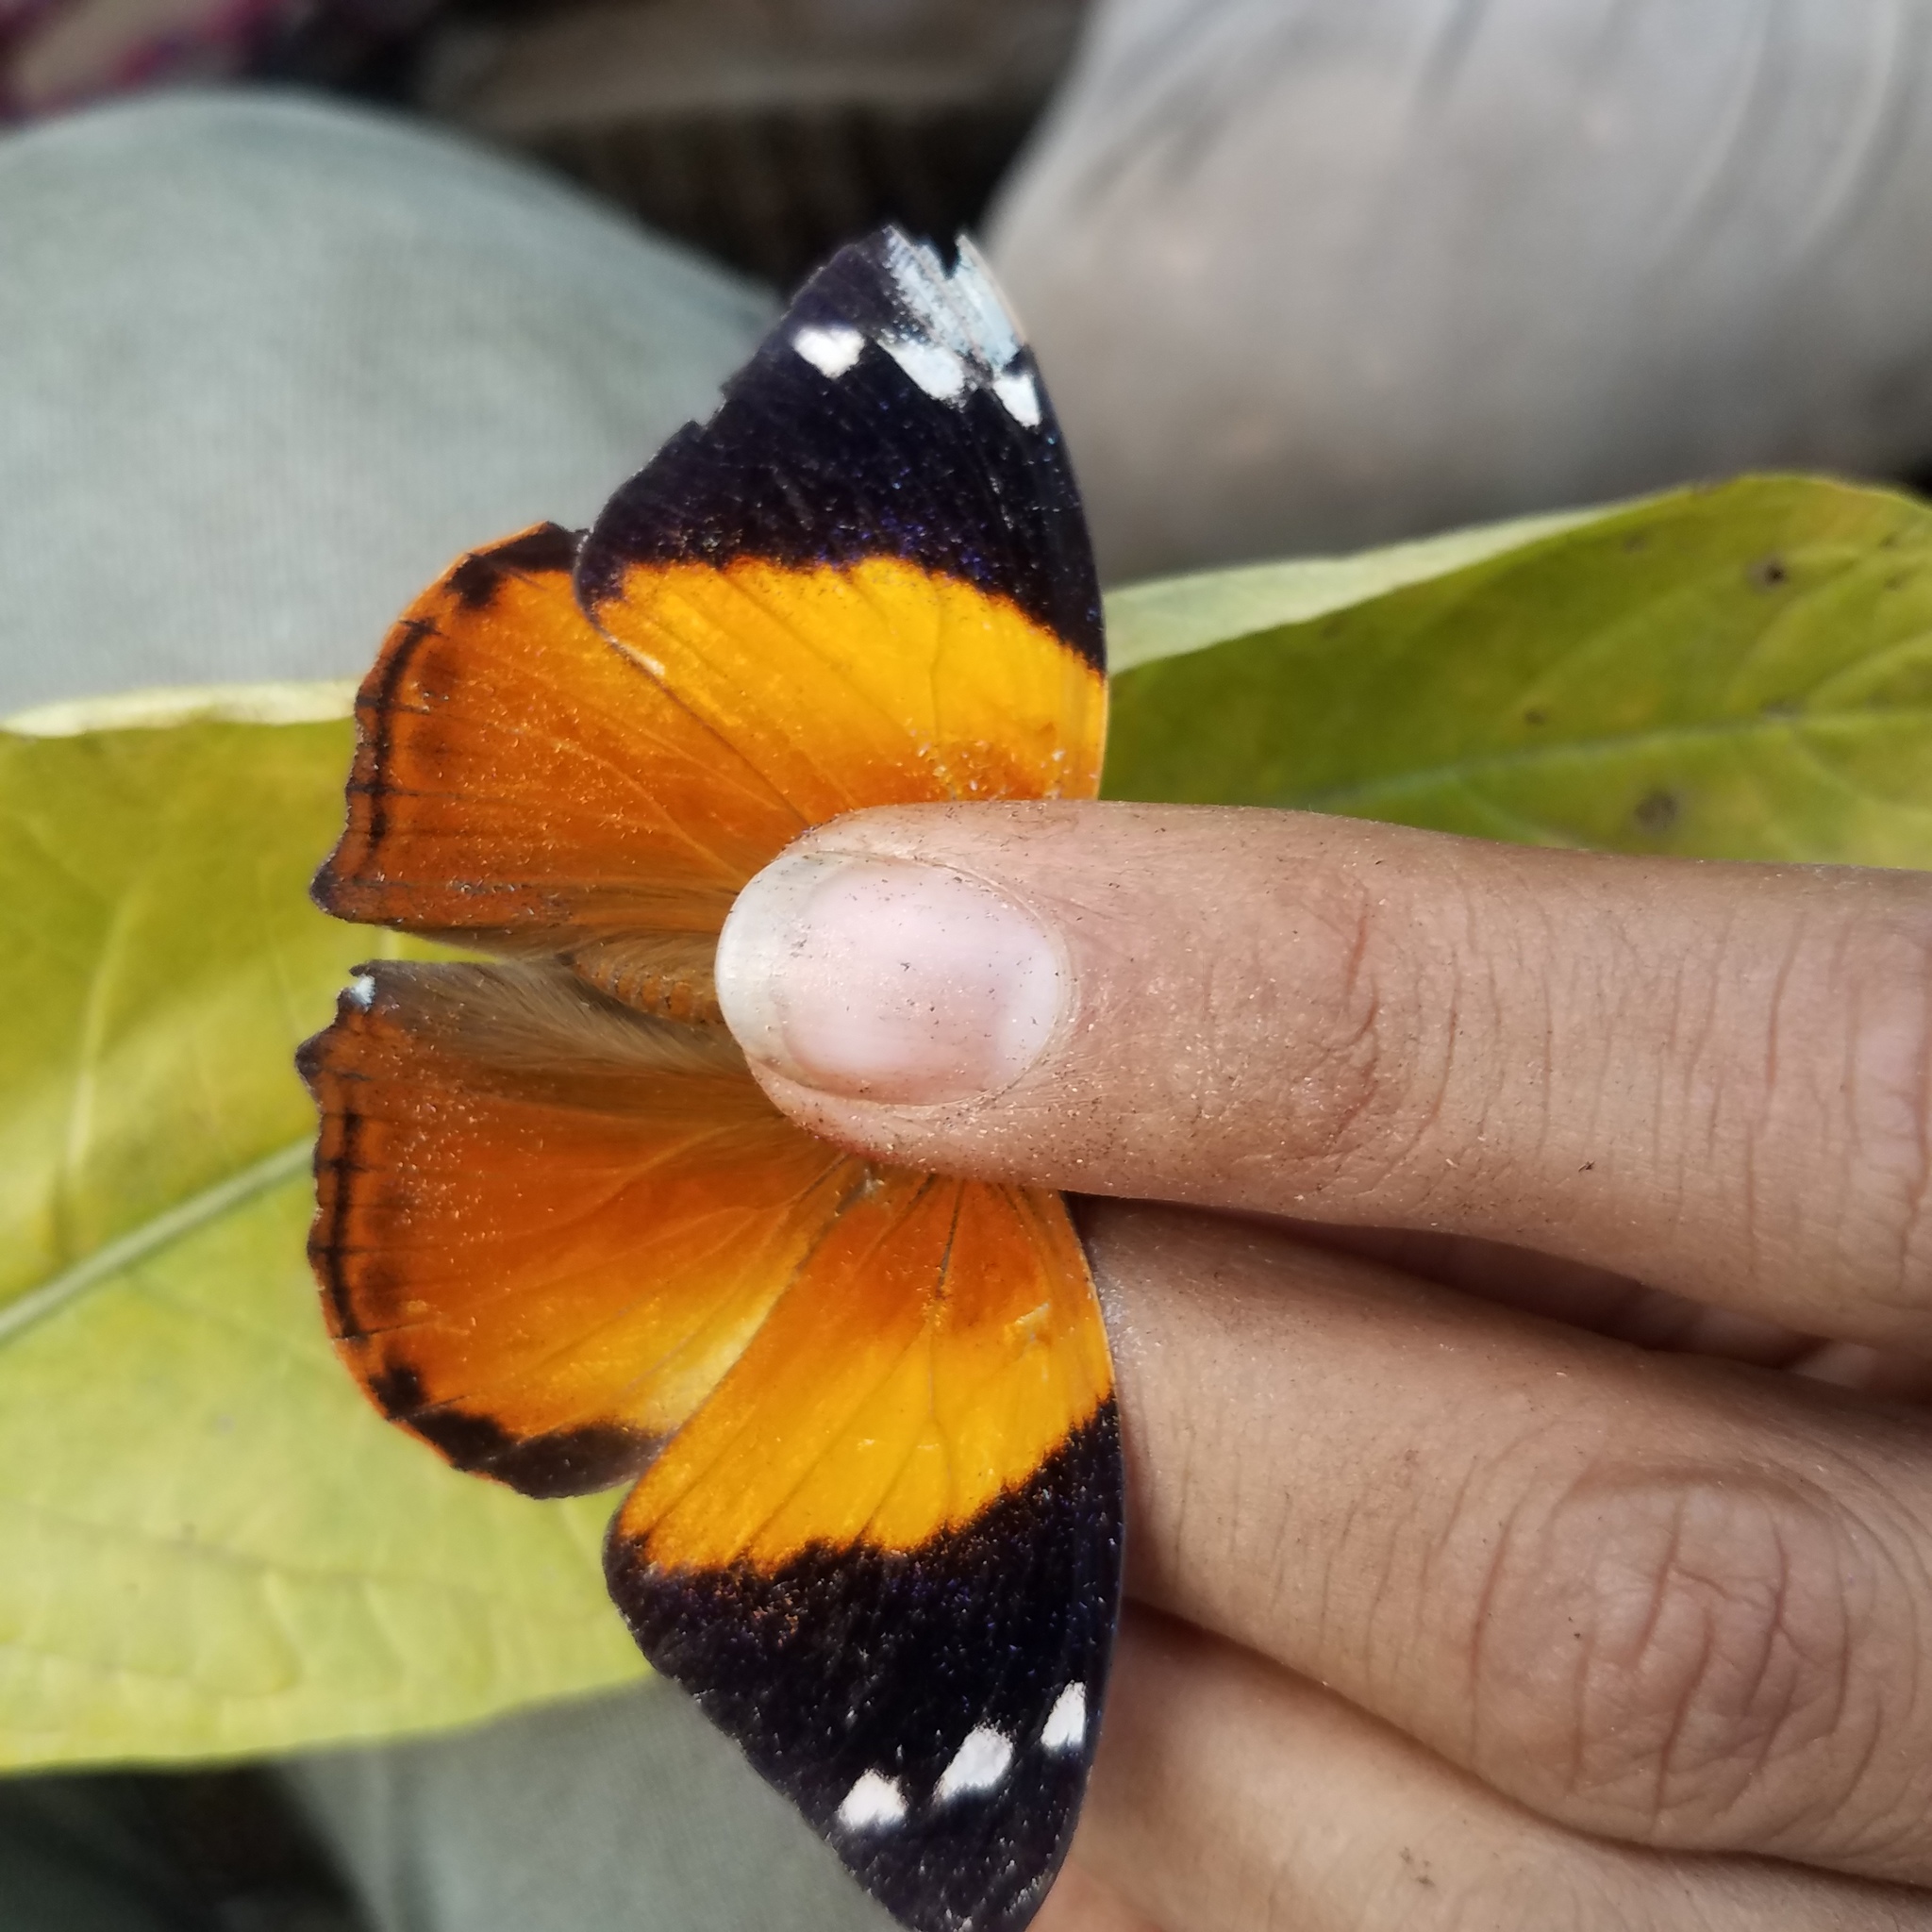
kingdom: Animalia
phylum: Arthropoda
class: Insecta
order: Lepidoptera
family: Nymphalidae
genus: Smyrna
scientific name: Smyrna blomfildia
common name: Blomfild's beauty
